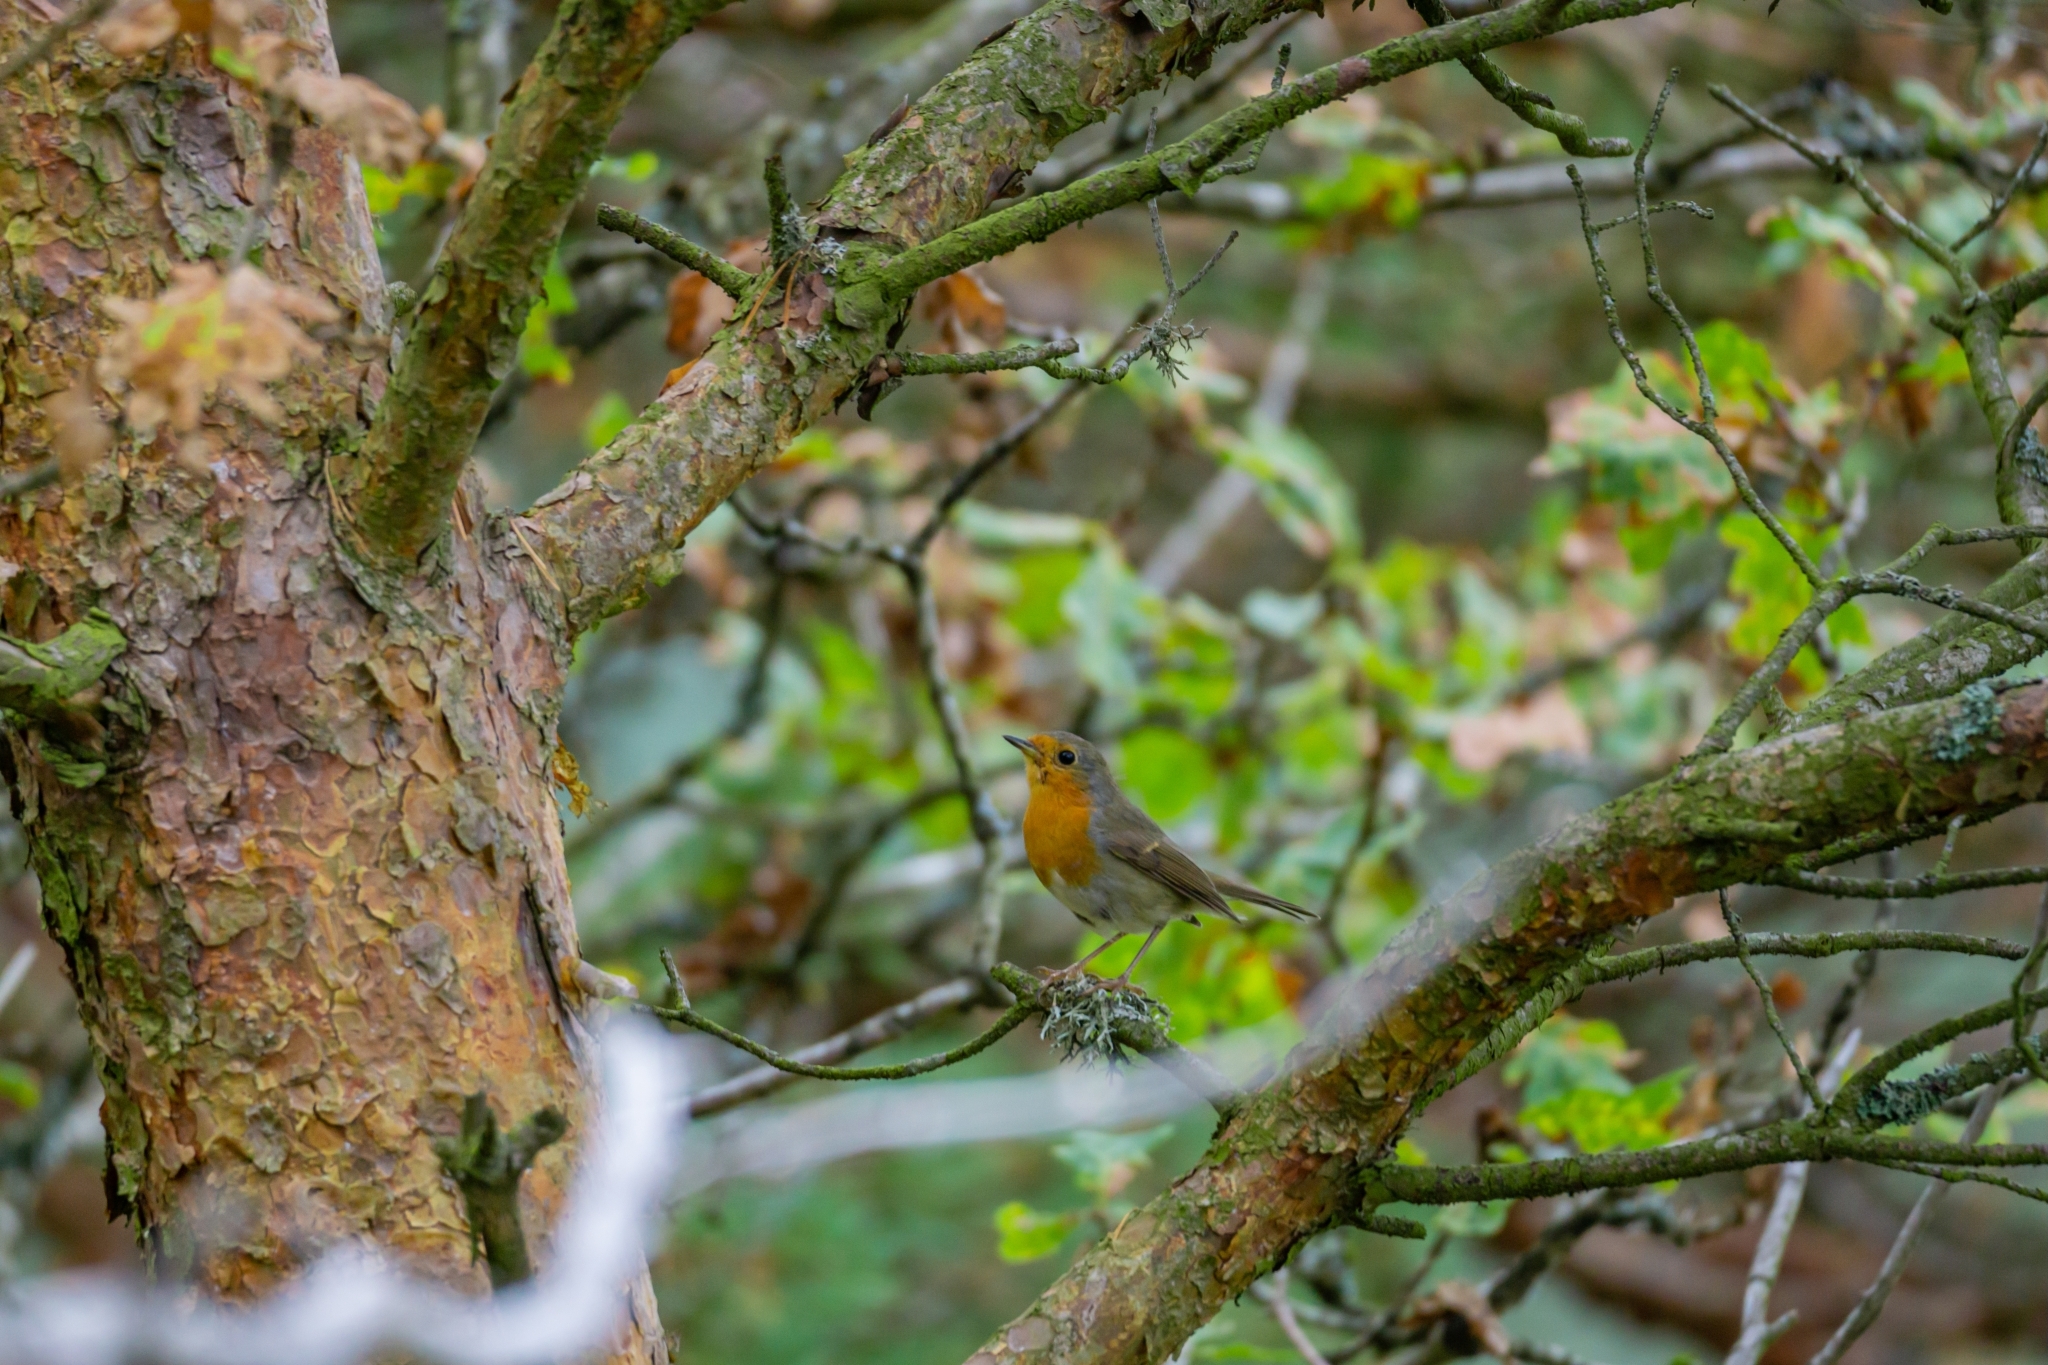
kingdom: Animalia
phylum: Chordata
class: Aves
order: Passeriformes
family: Muscicapidae
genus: Erithacus
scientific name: Erithacus rubecula
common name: European robin
